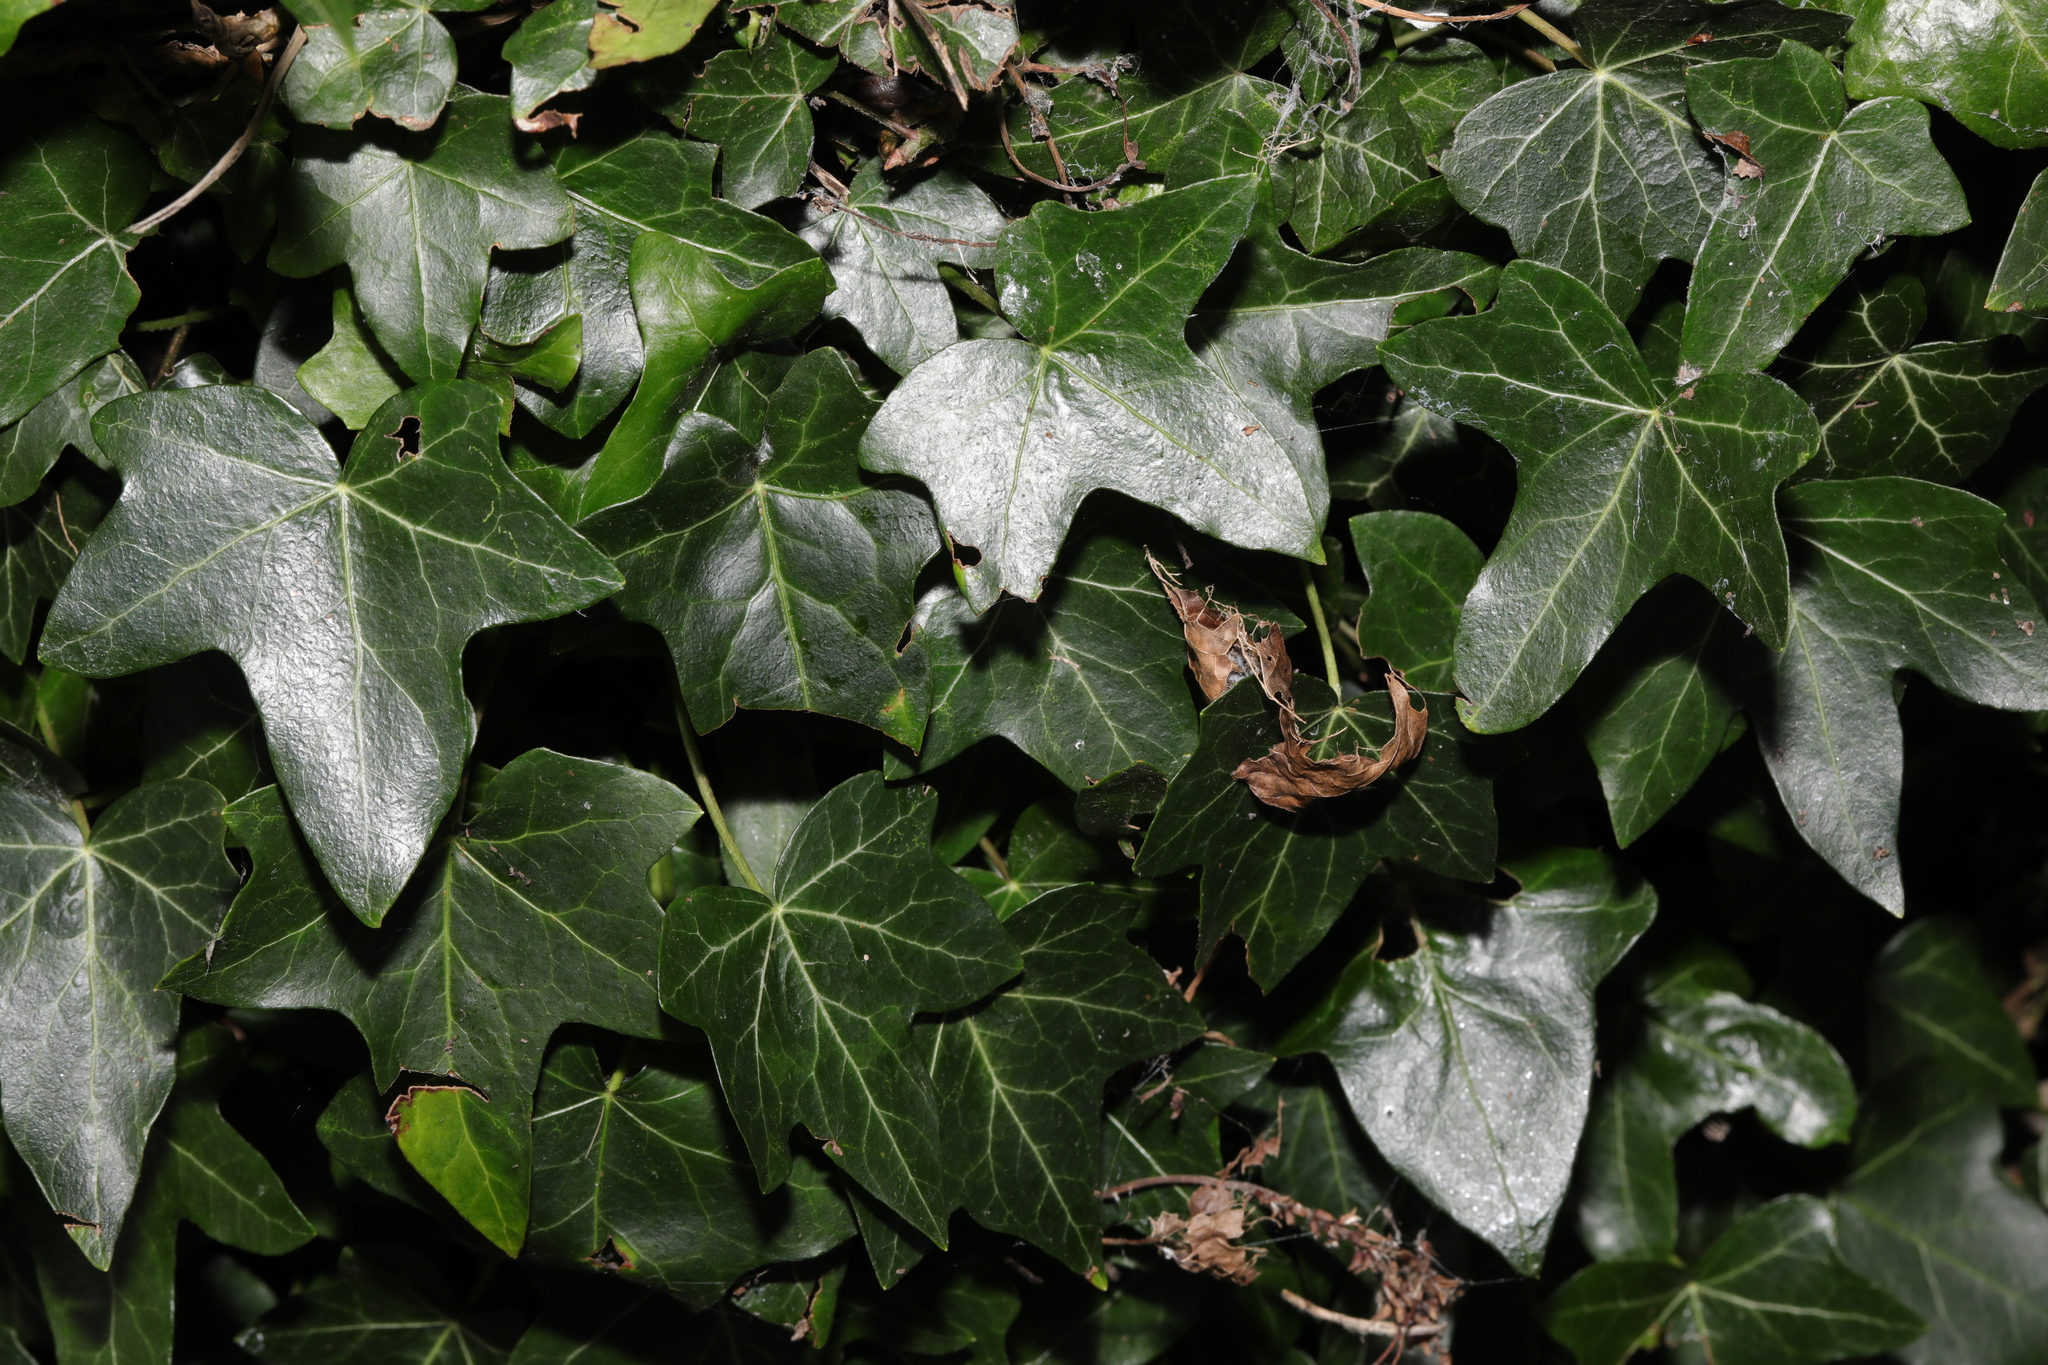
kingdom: Plantae
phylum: Tracheophyta
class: Magnoliopsida
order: Apiales
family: Araliaceae
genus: Hedera
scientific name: Hedera helix
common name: Ivy
